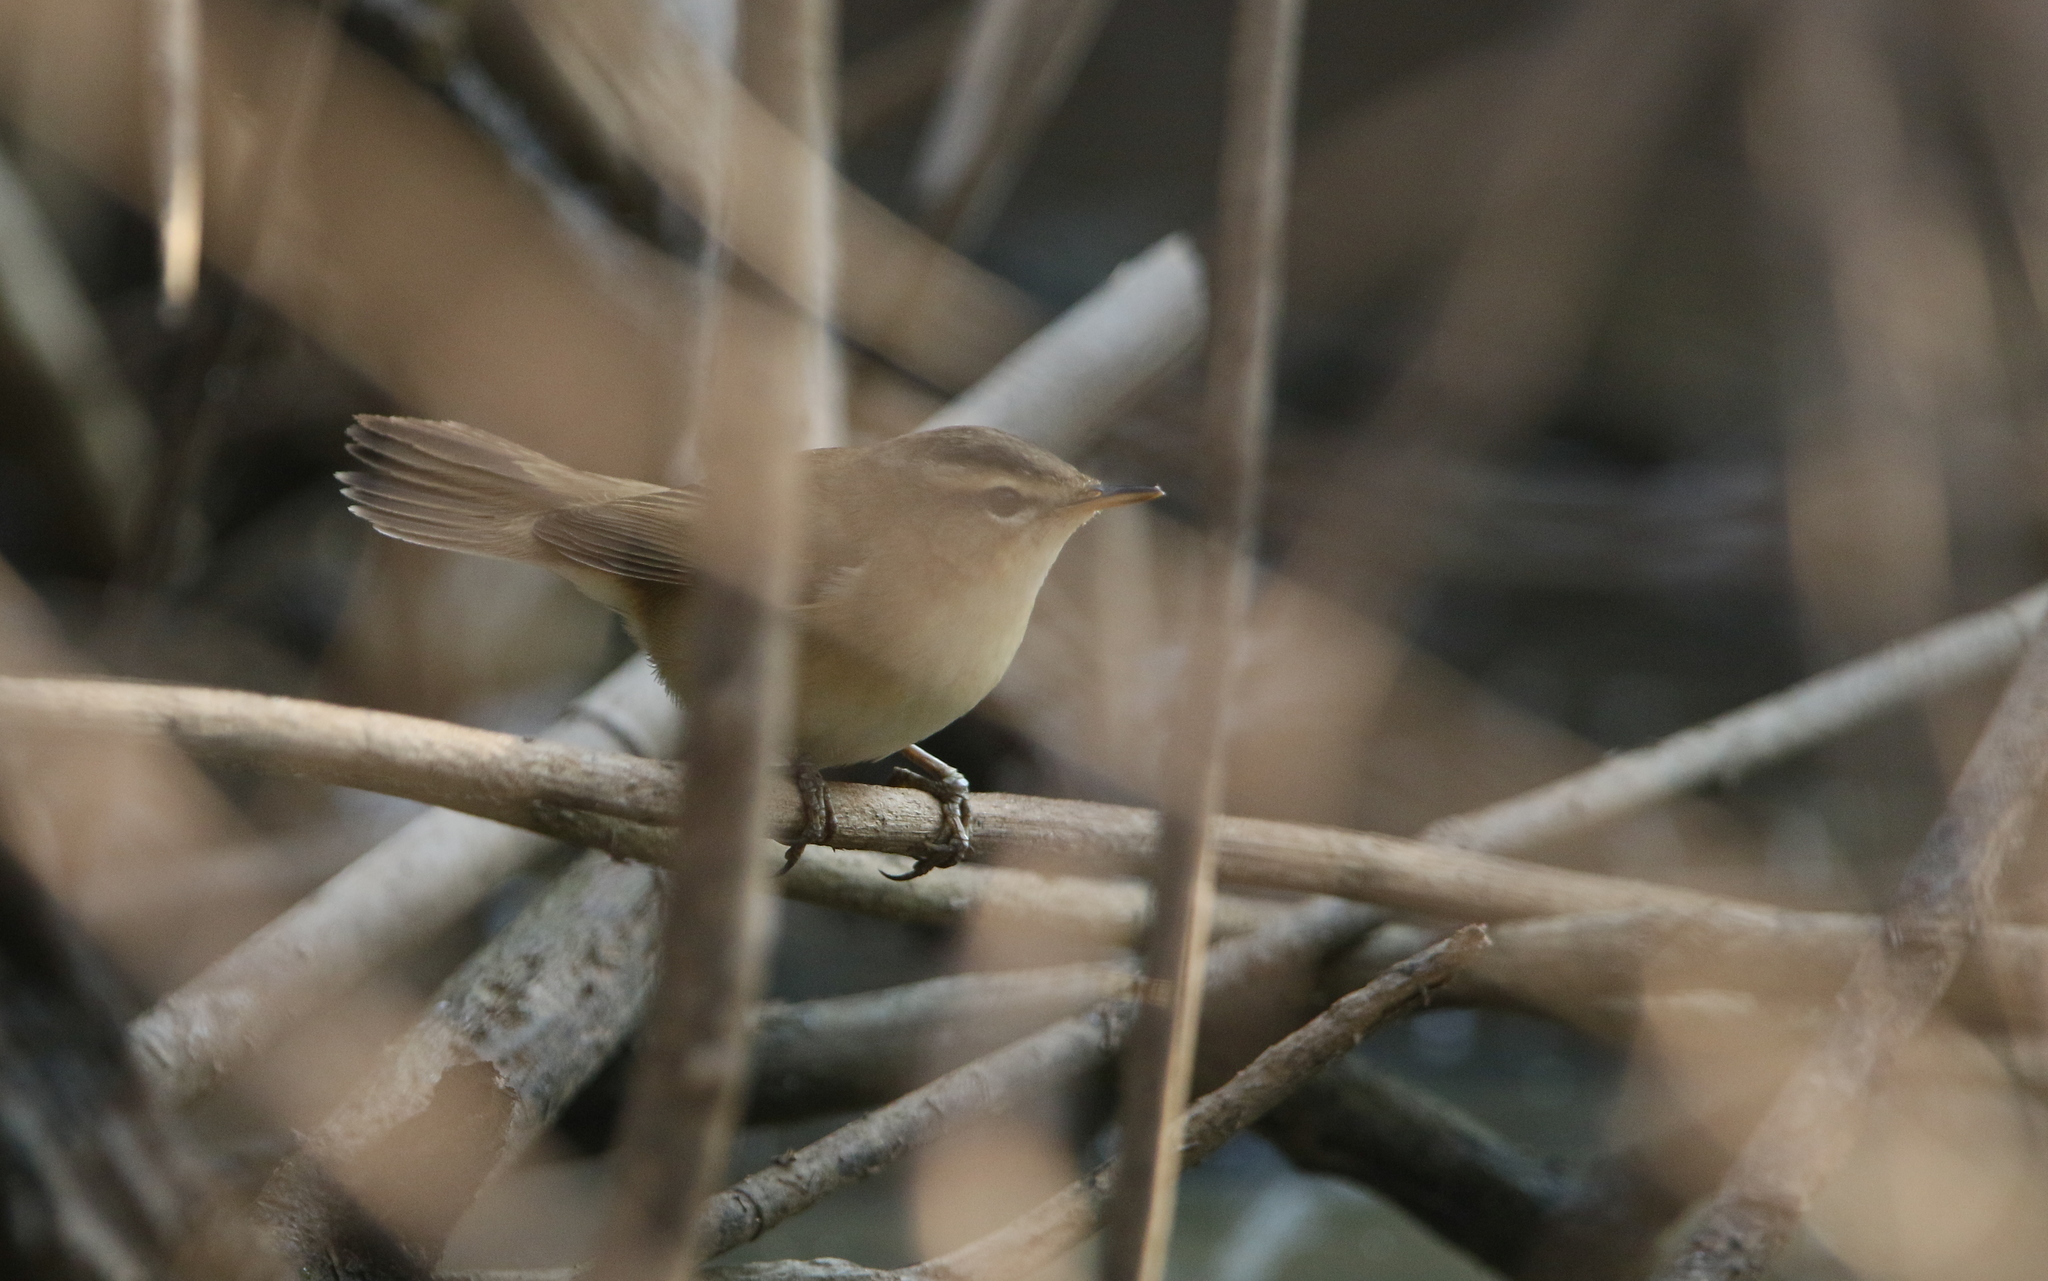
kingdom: Animalia
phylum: Chordata
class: Aves
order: Passeriformes
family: Acrocephalidae
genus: Acrocephalus
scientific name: Acrocephalus bistrigiceps
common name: Black-browed reed warbler
